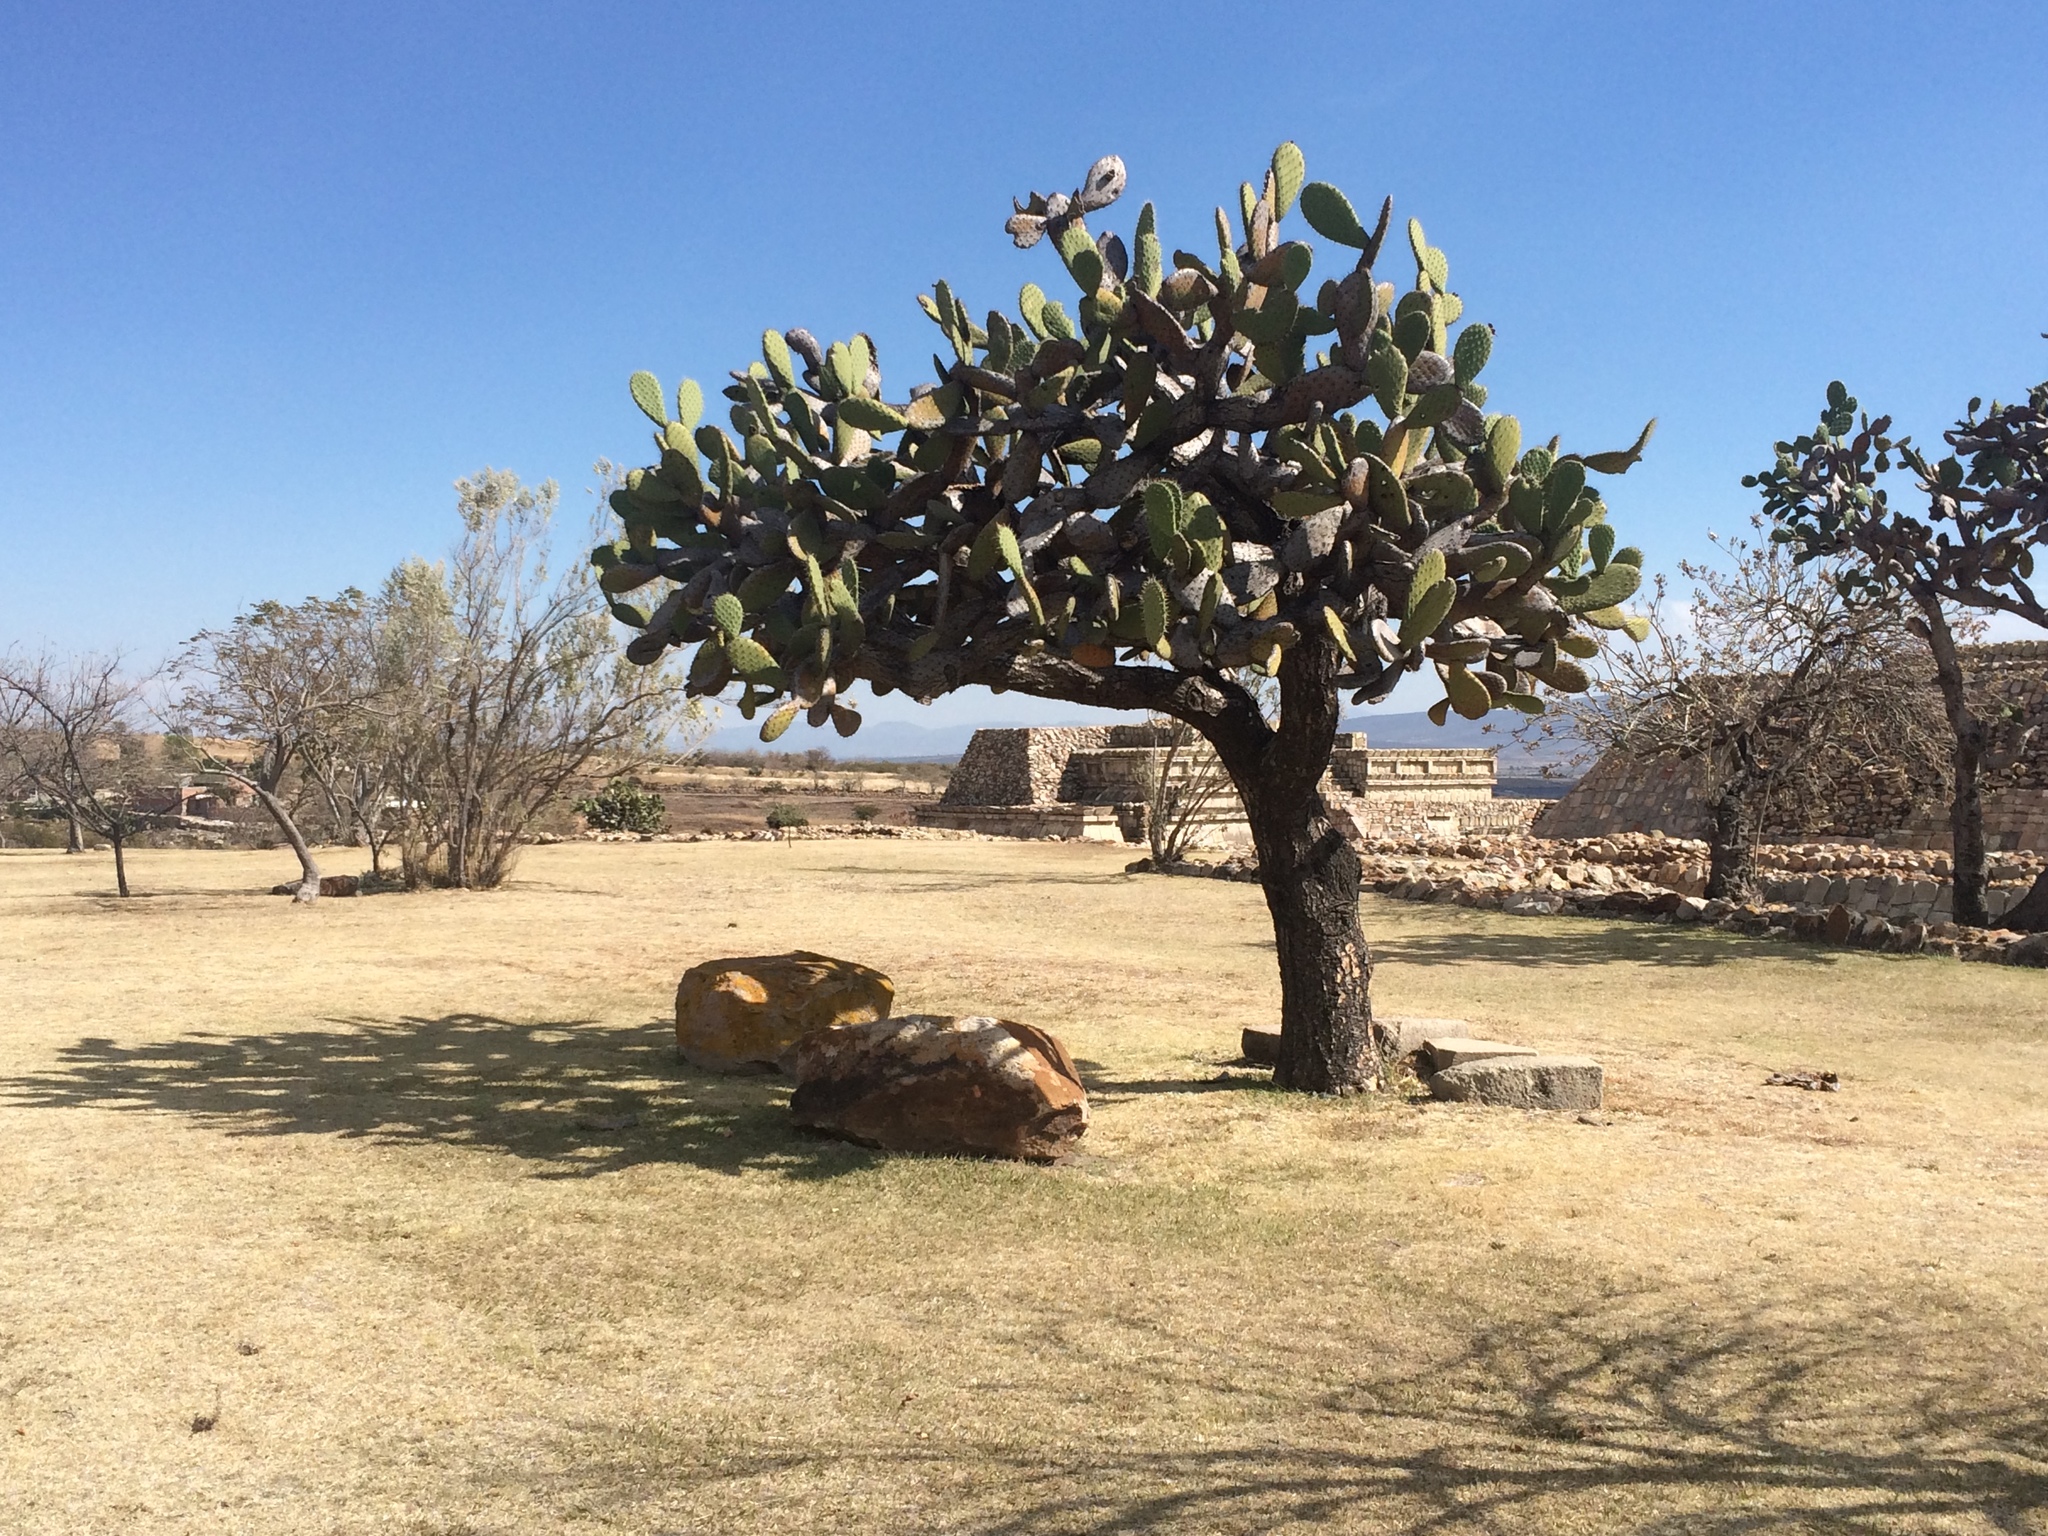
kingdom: Plantae
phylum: Tracheophyta
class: Magnoliopsida
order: Caryophyllales
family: Cactaceae
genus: Opuntia
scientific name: Opuntia hyptiacantha
